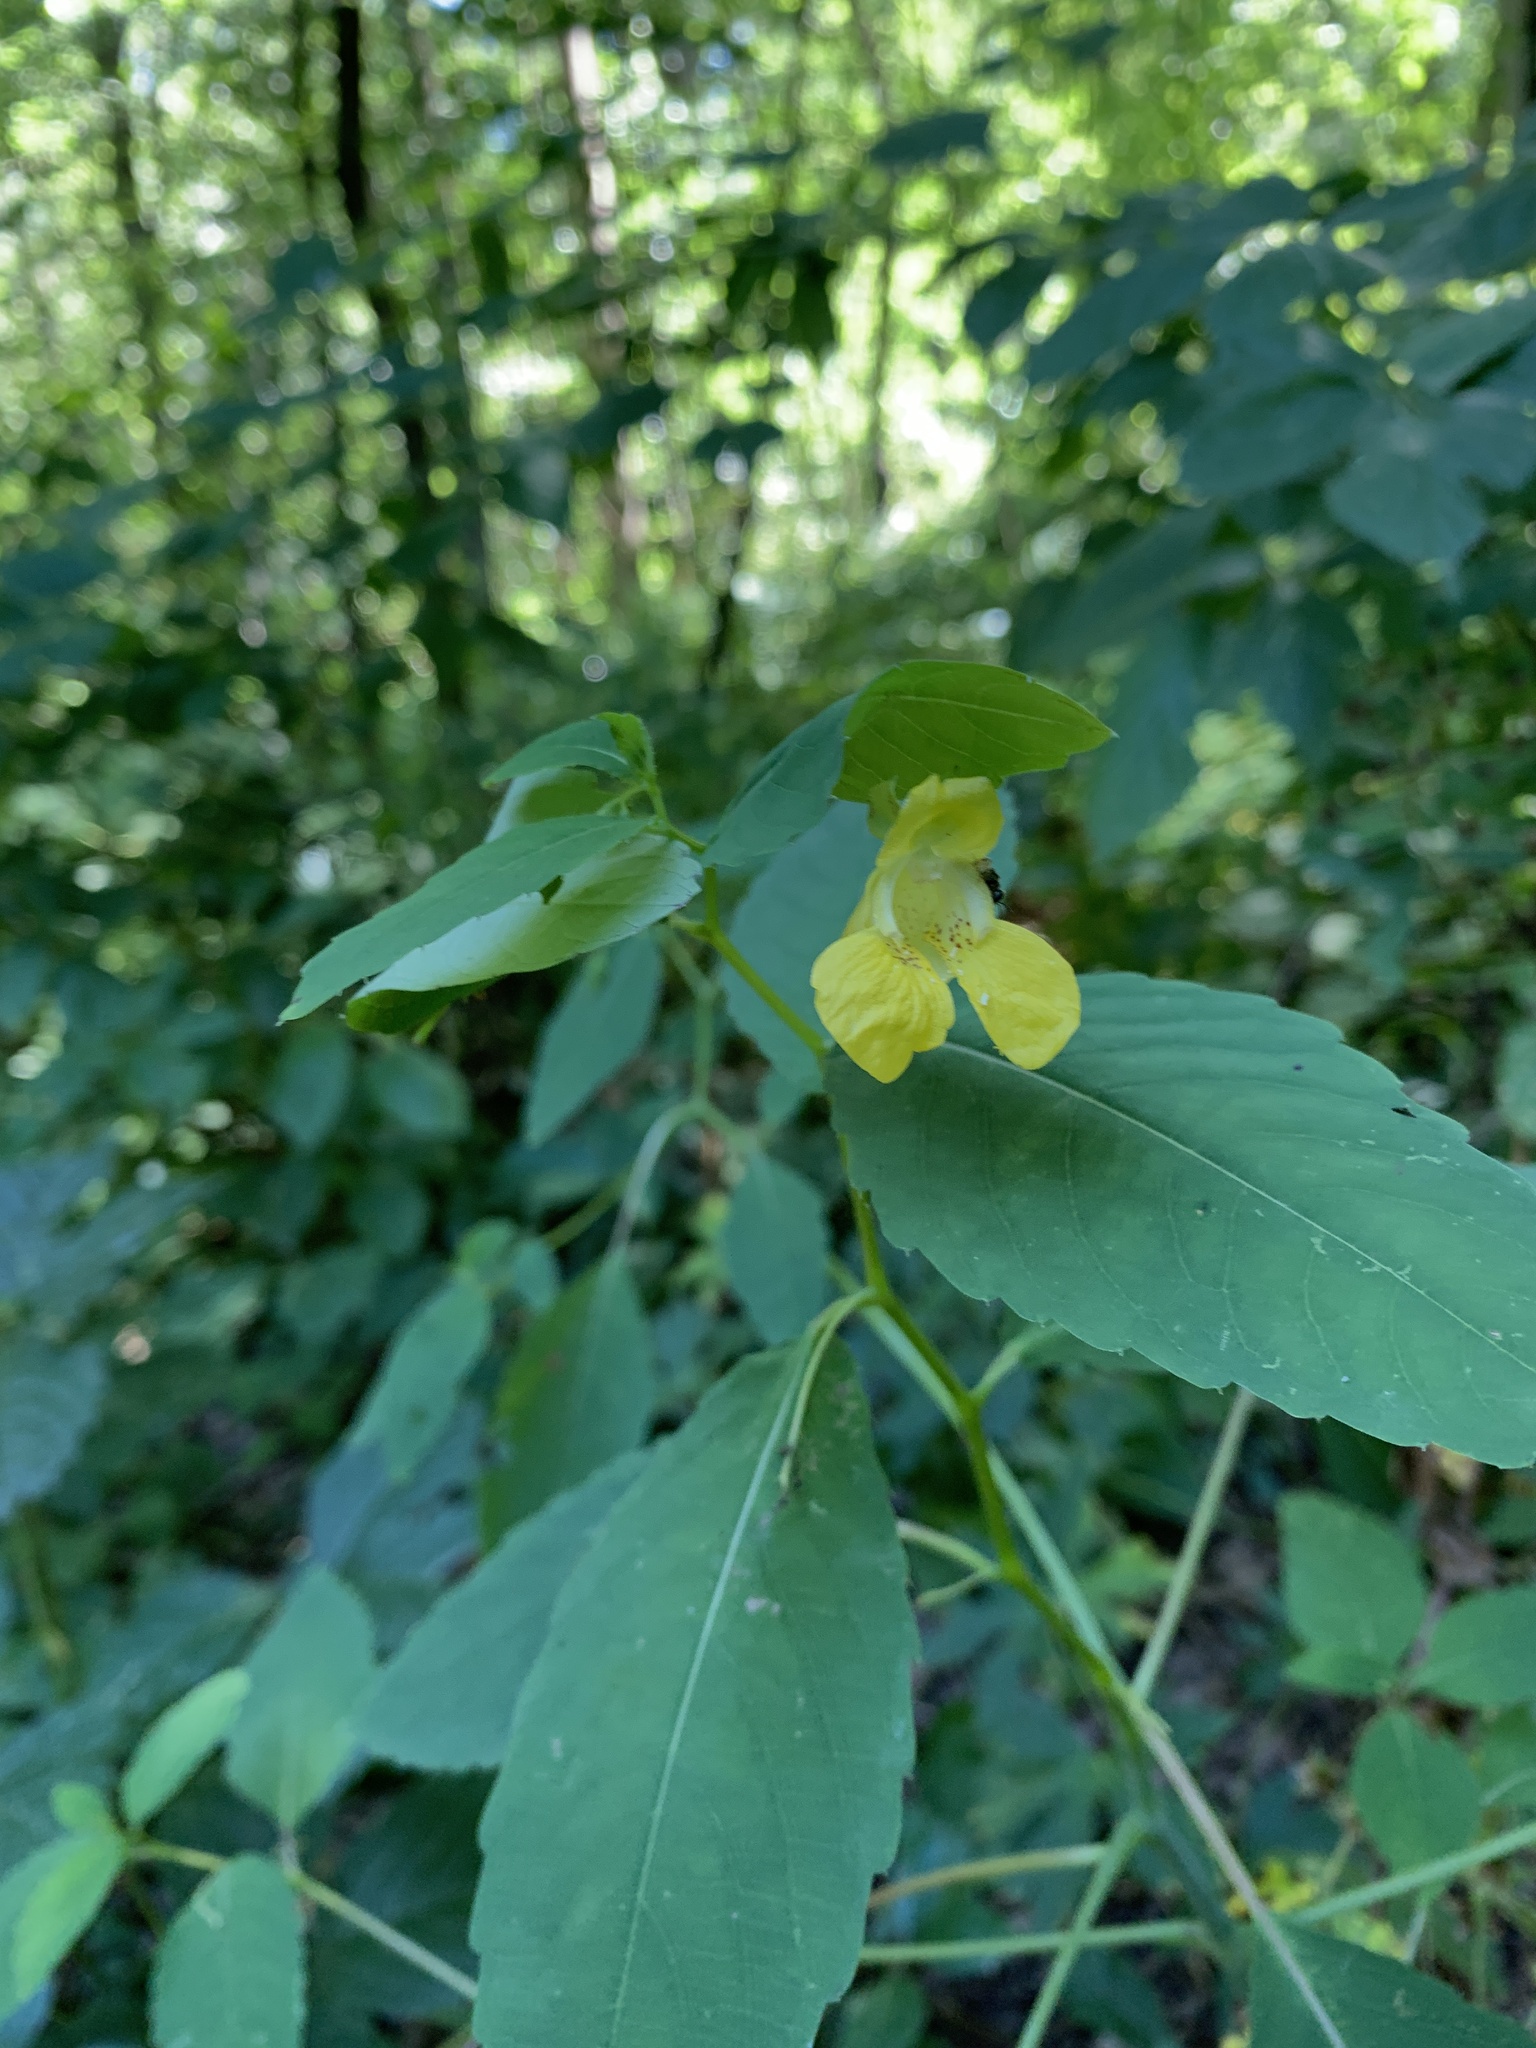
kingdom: Plantae
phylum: Tracheophyta
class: Magnoliopsida
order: Ericales
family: Balsaminaceae
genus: Impatiens
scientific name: Impatiens pallida
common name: Pale snapweed
